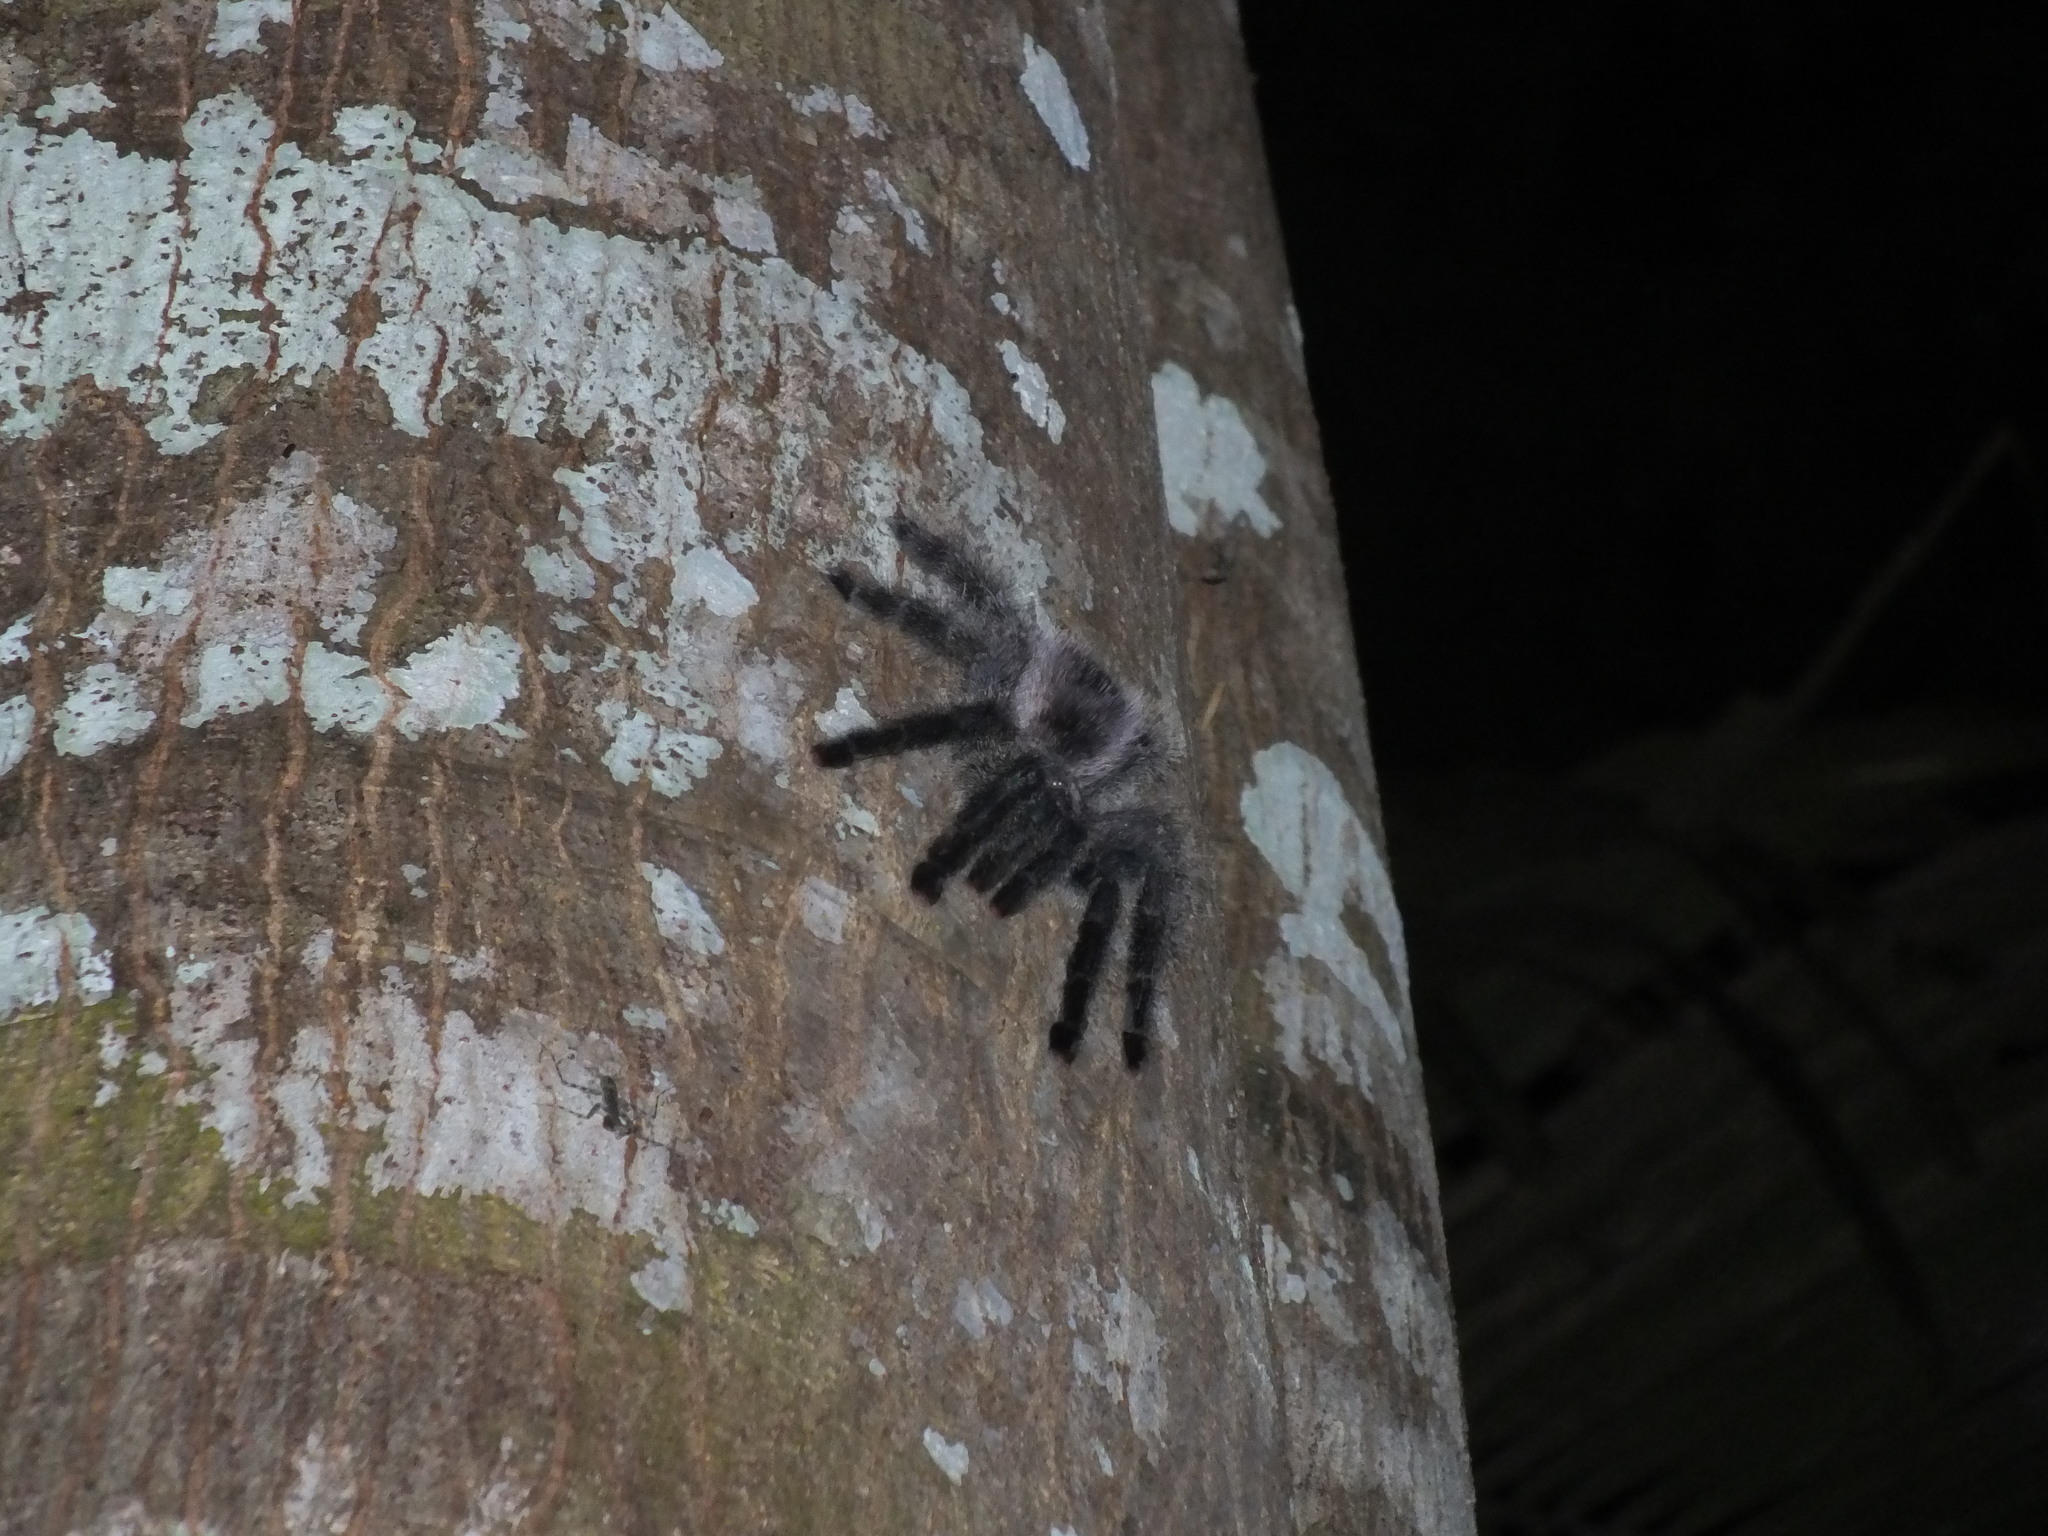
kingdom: Animalia
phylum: Arthropoda
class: Arachnida
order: Araneae
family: Theraphosidae
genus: Avicularia
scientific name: Avicularia juruensis
